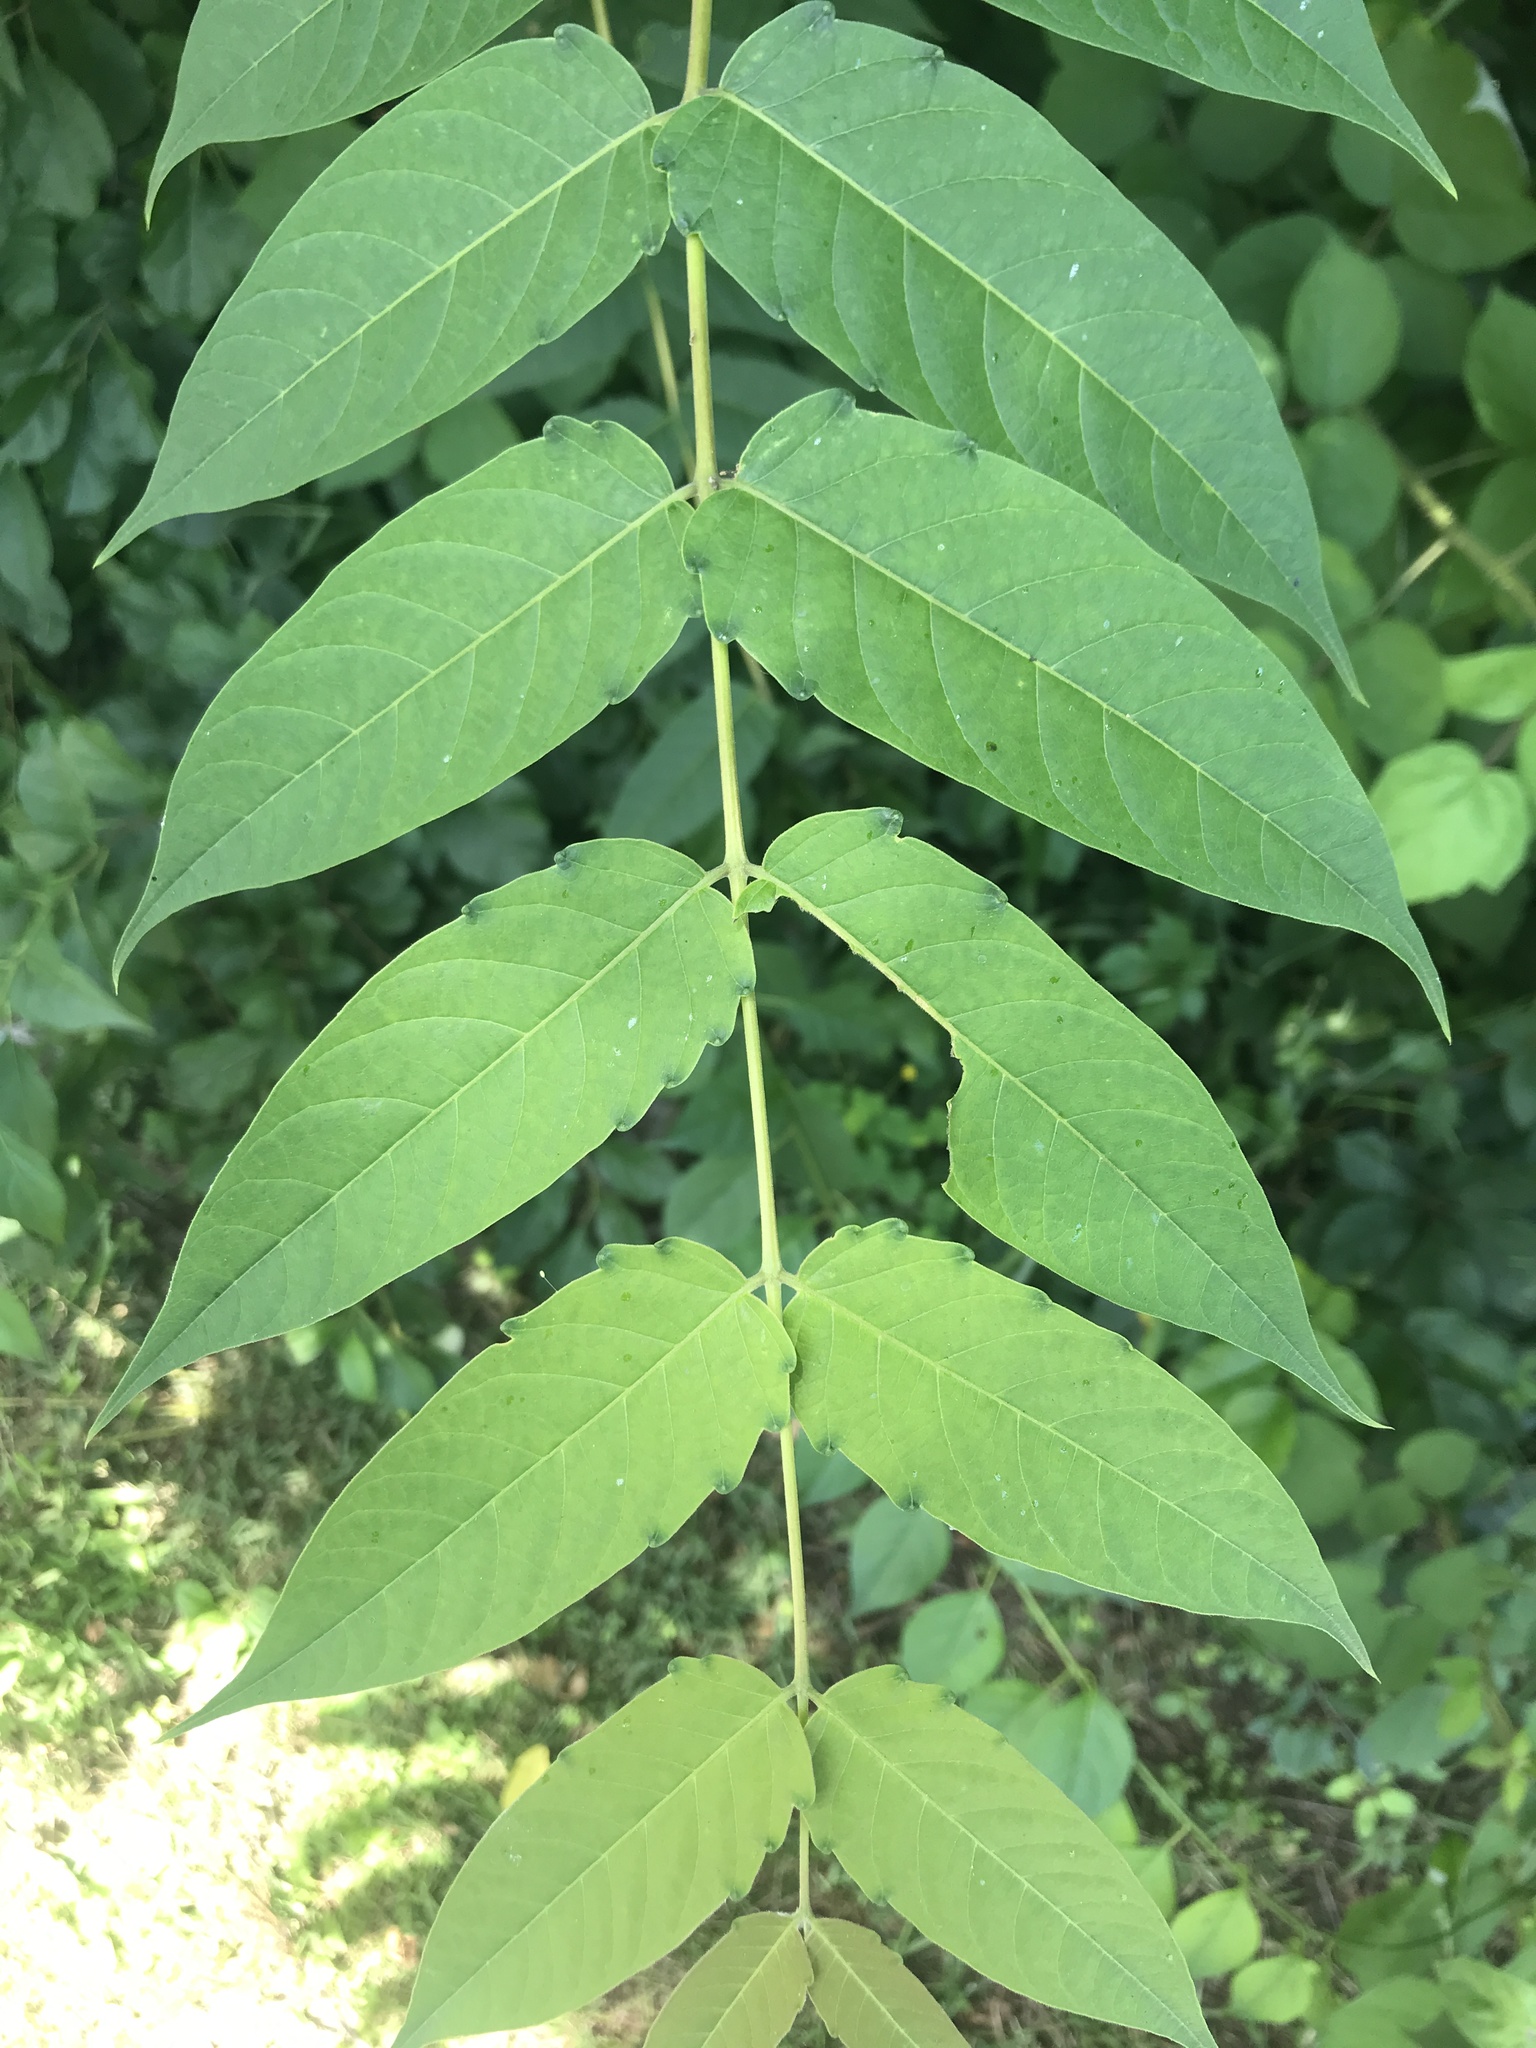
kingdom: Plantae
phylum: Tracheophyta
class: Magnoliopsida
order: Sapindales
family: Simaroubaceae
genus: Ailanthus
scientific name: Ailanthus altissima
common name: Tree-of-heaven
